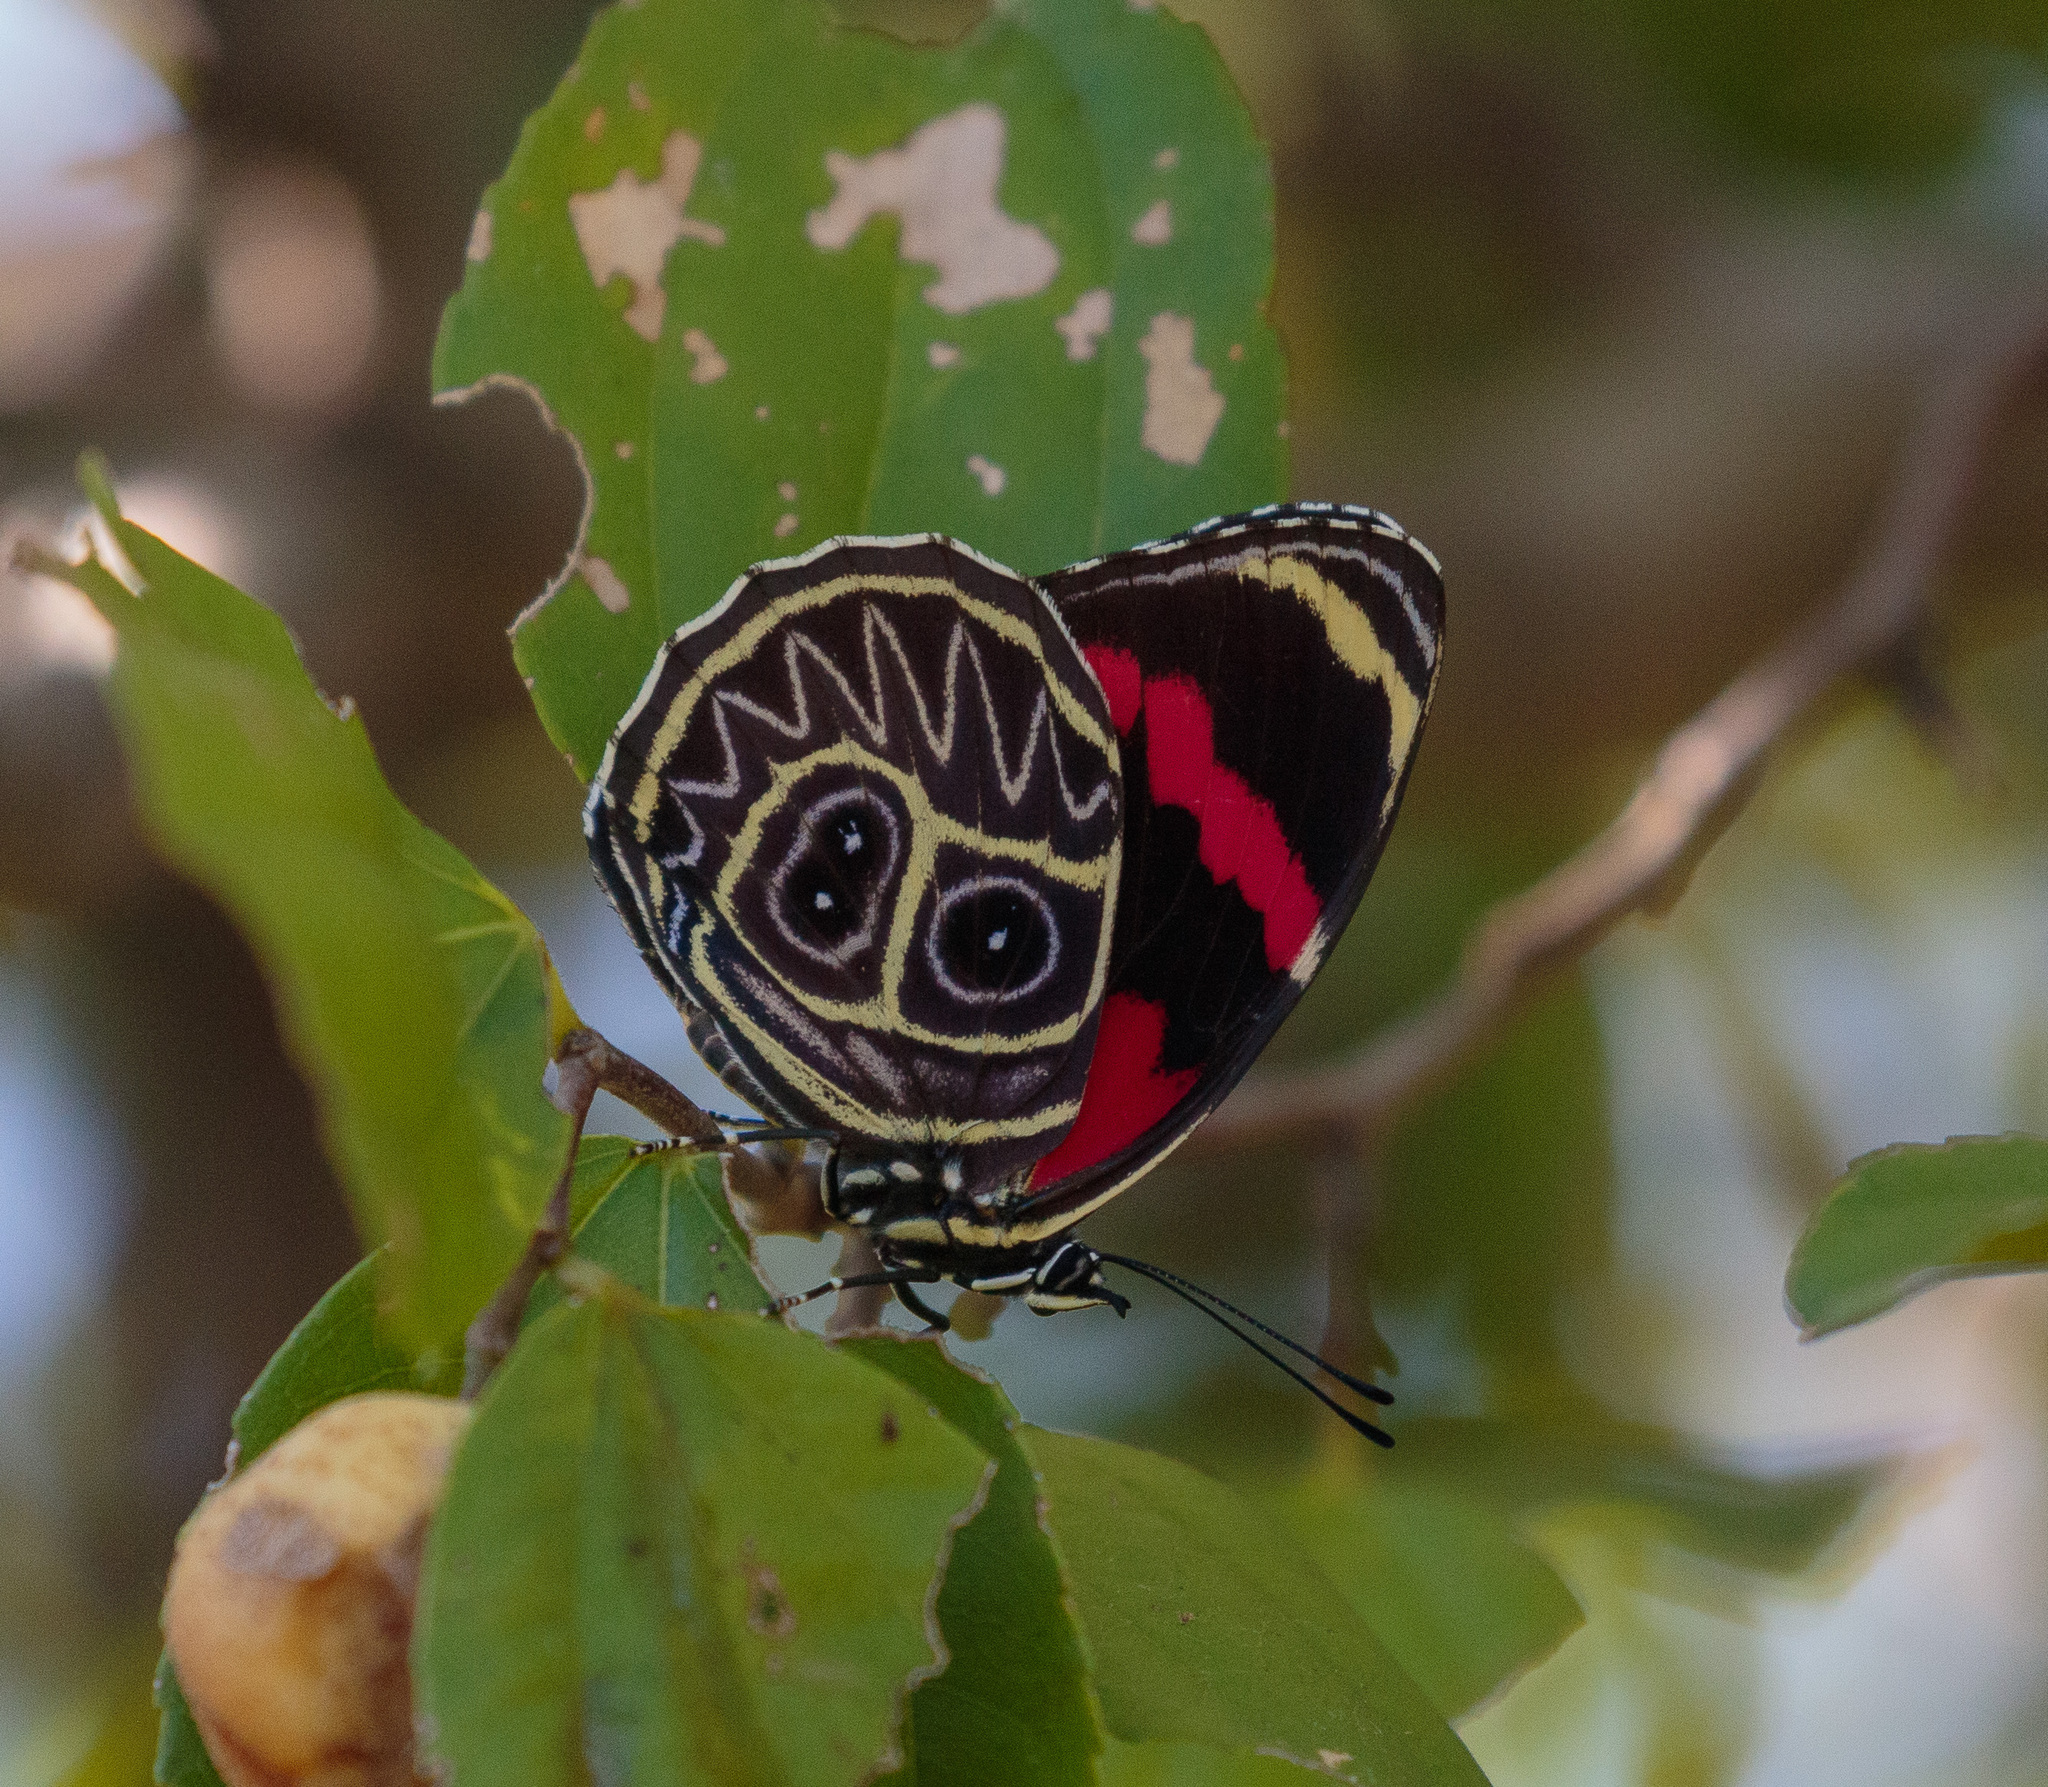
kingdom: Animalia
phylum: Arthropoda
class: Insecta
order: Lepidoptera
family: Nymphalidae
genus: Catagramma
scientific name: Catagramma Callicore sorana
